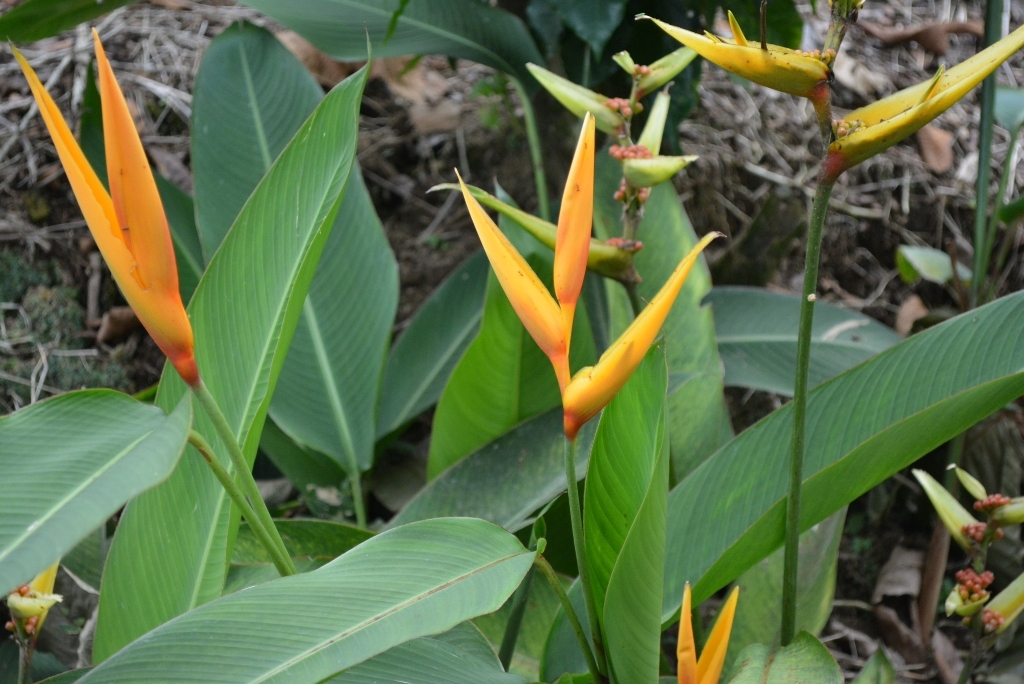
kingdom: Plantae
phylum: Tracheophyta
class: Liliopsida
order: Zingiberales
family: Heliconiaceae
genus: Heliconia
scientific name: Heliconia nickeriensis
